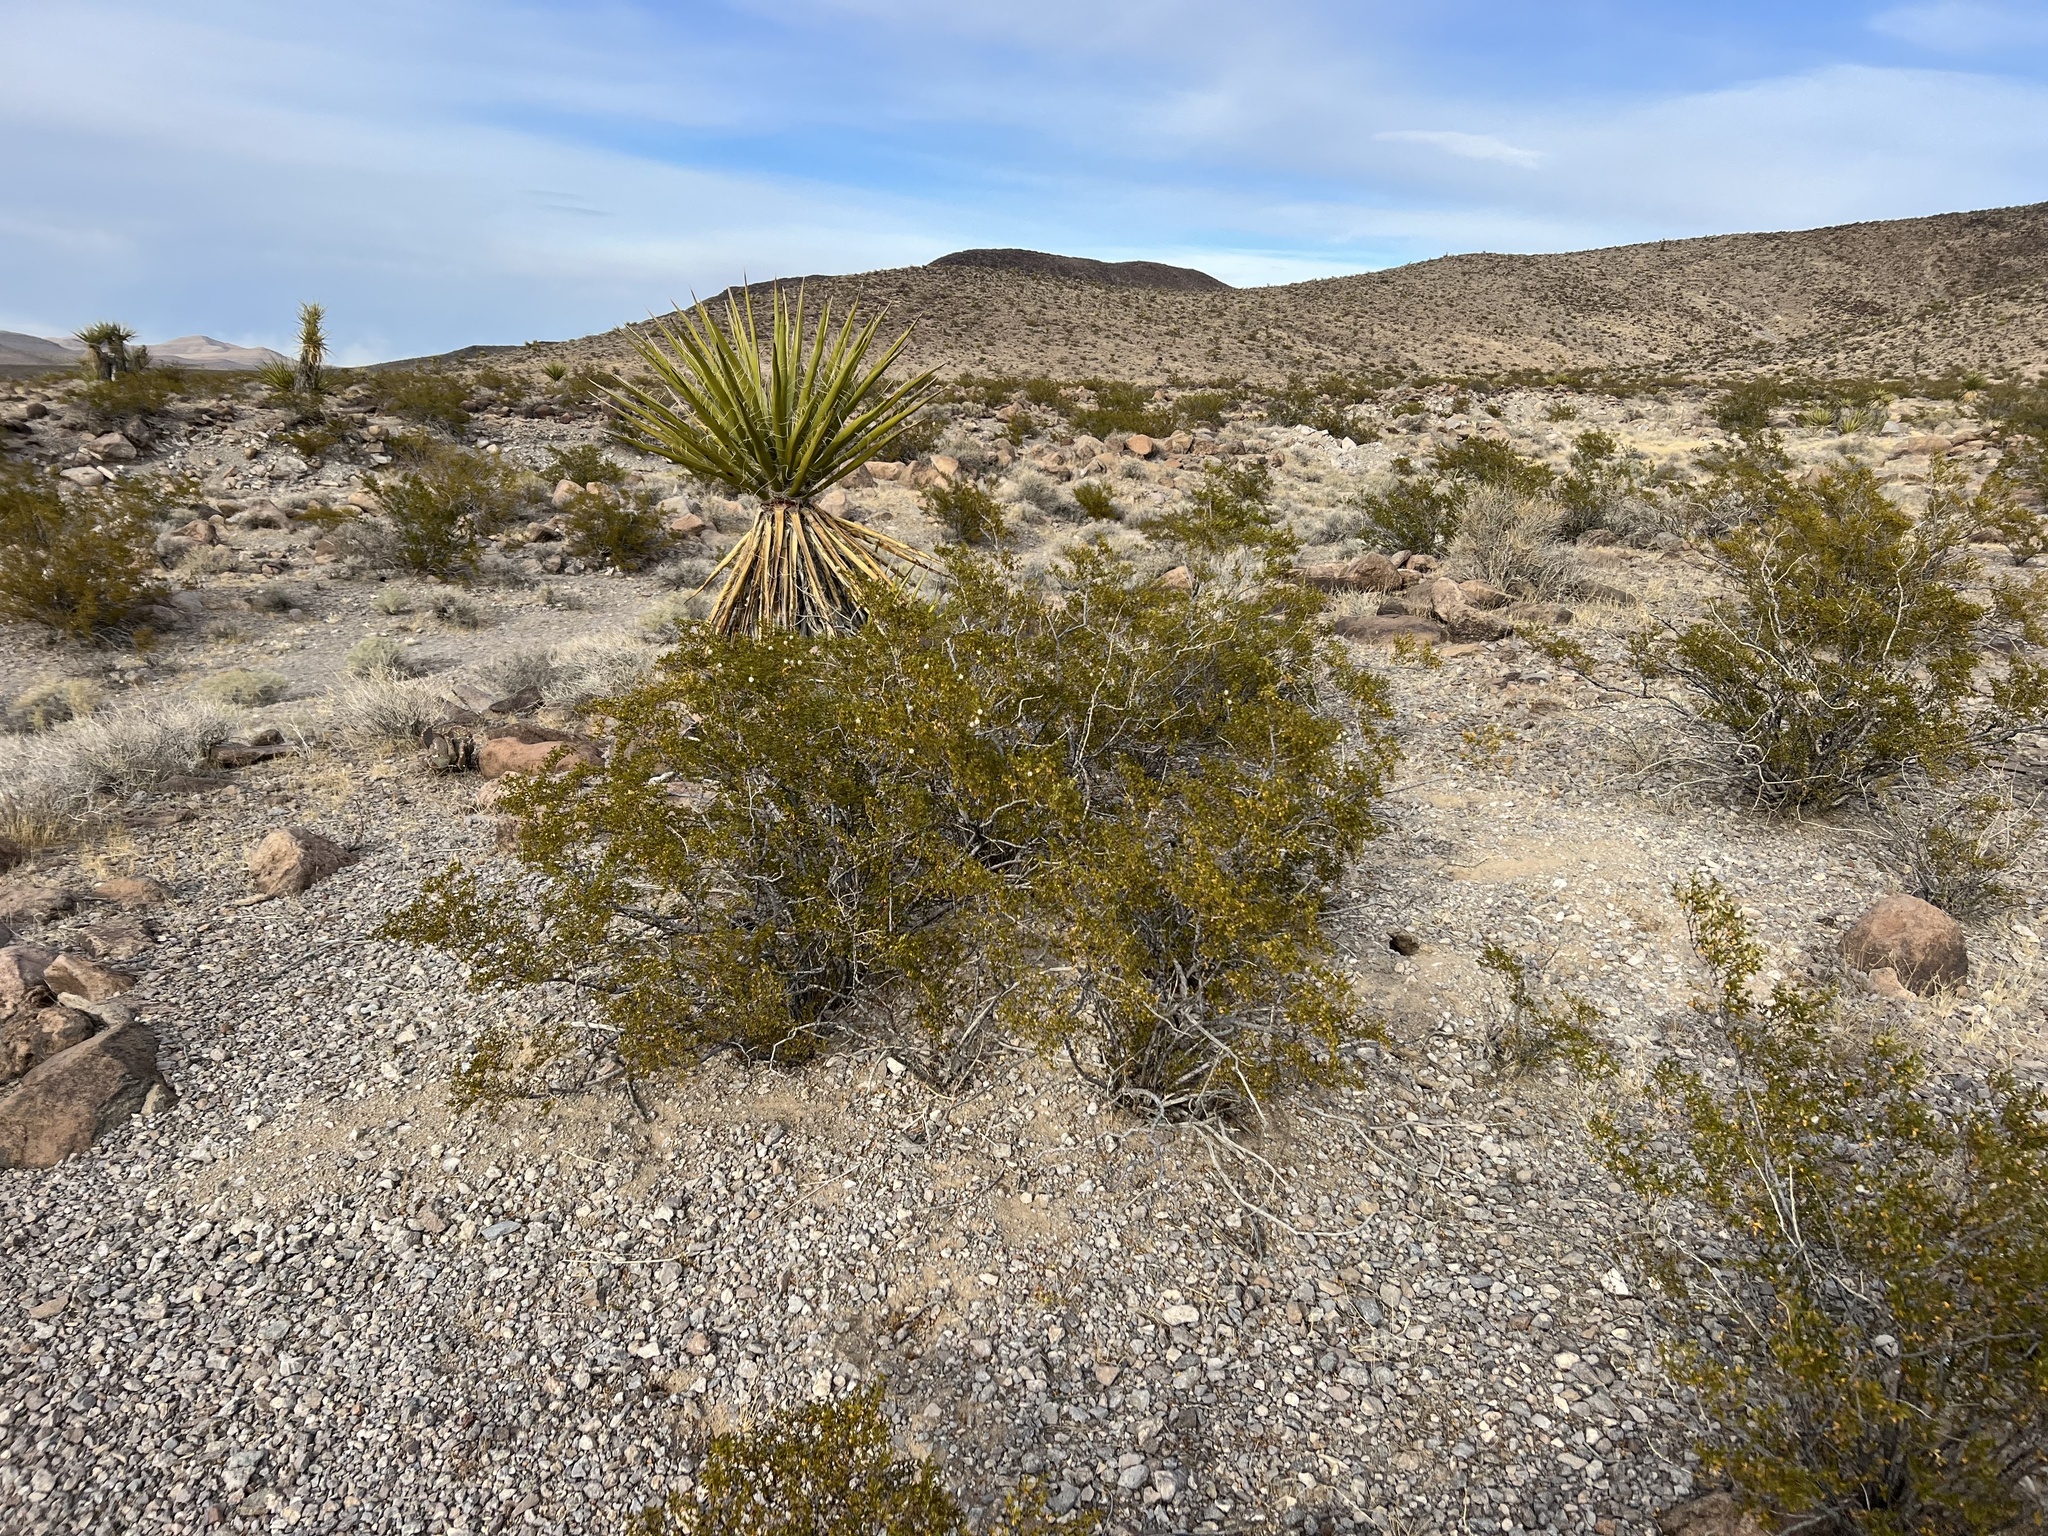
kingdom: Plantae
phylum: Tracheophyta
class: Magnoliopsida
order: Zygophyllales
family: Zygophyllaceae
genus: Larrea
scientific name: Larrea tridentata
